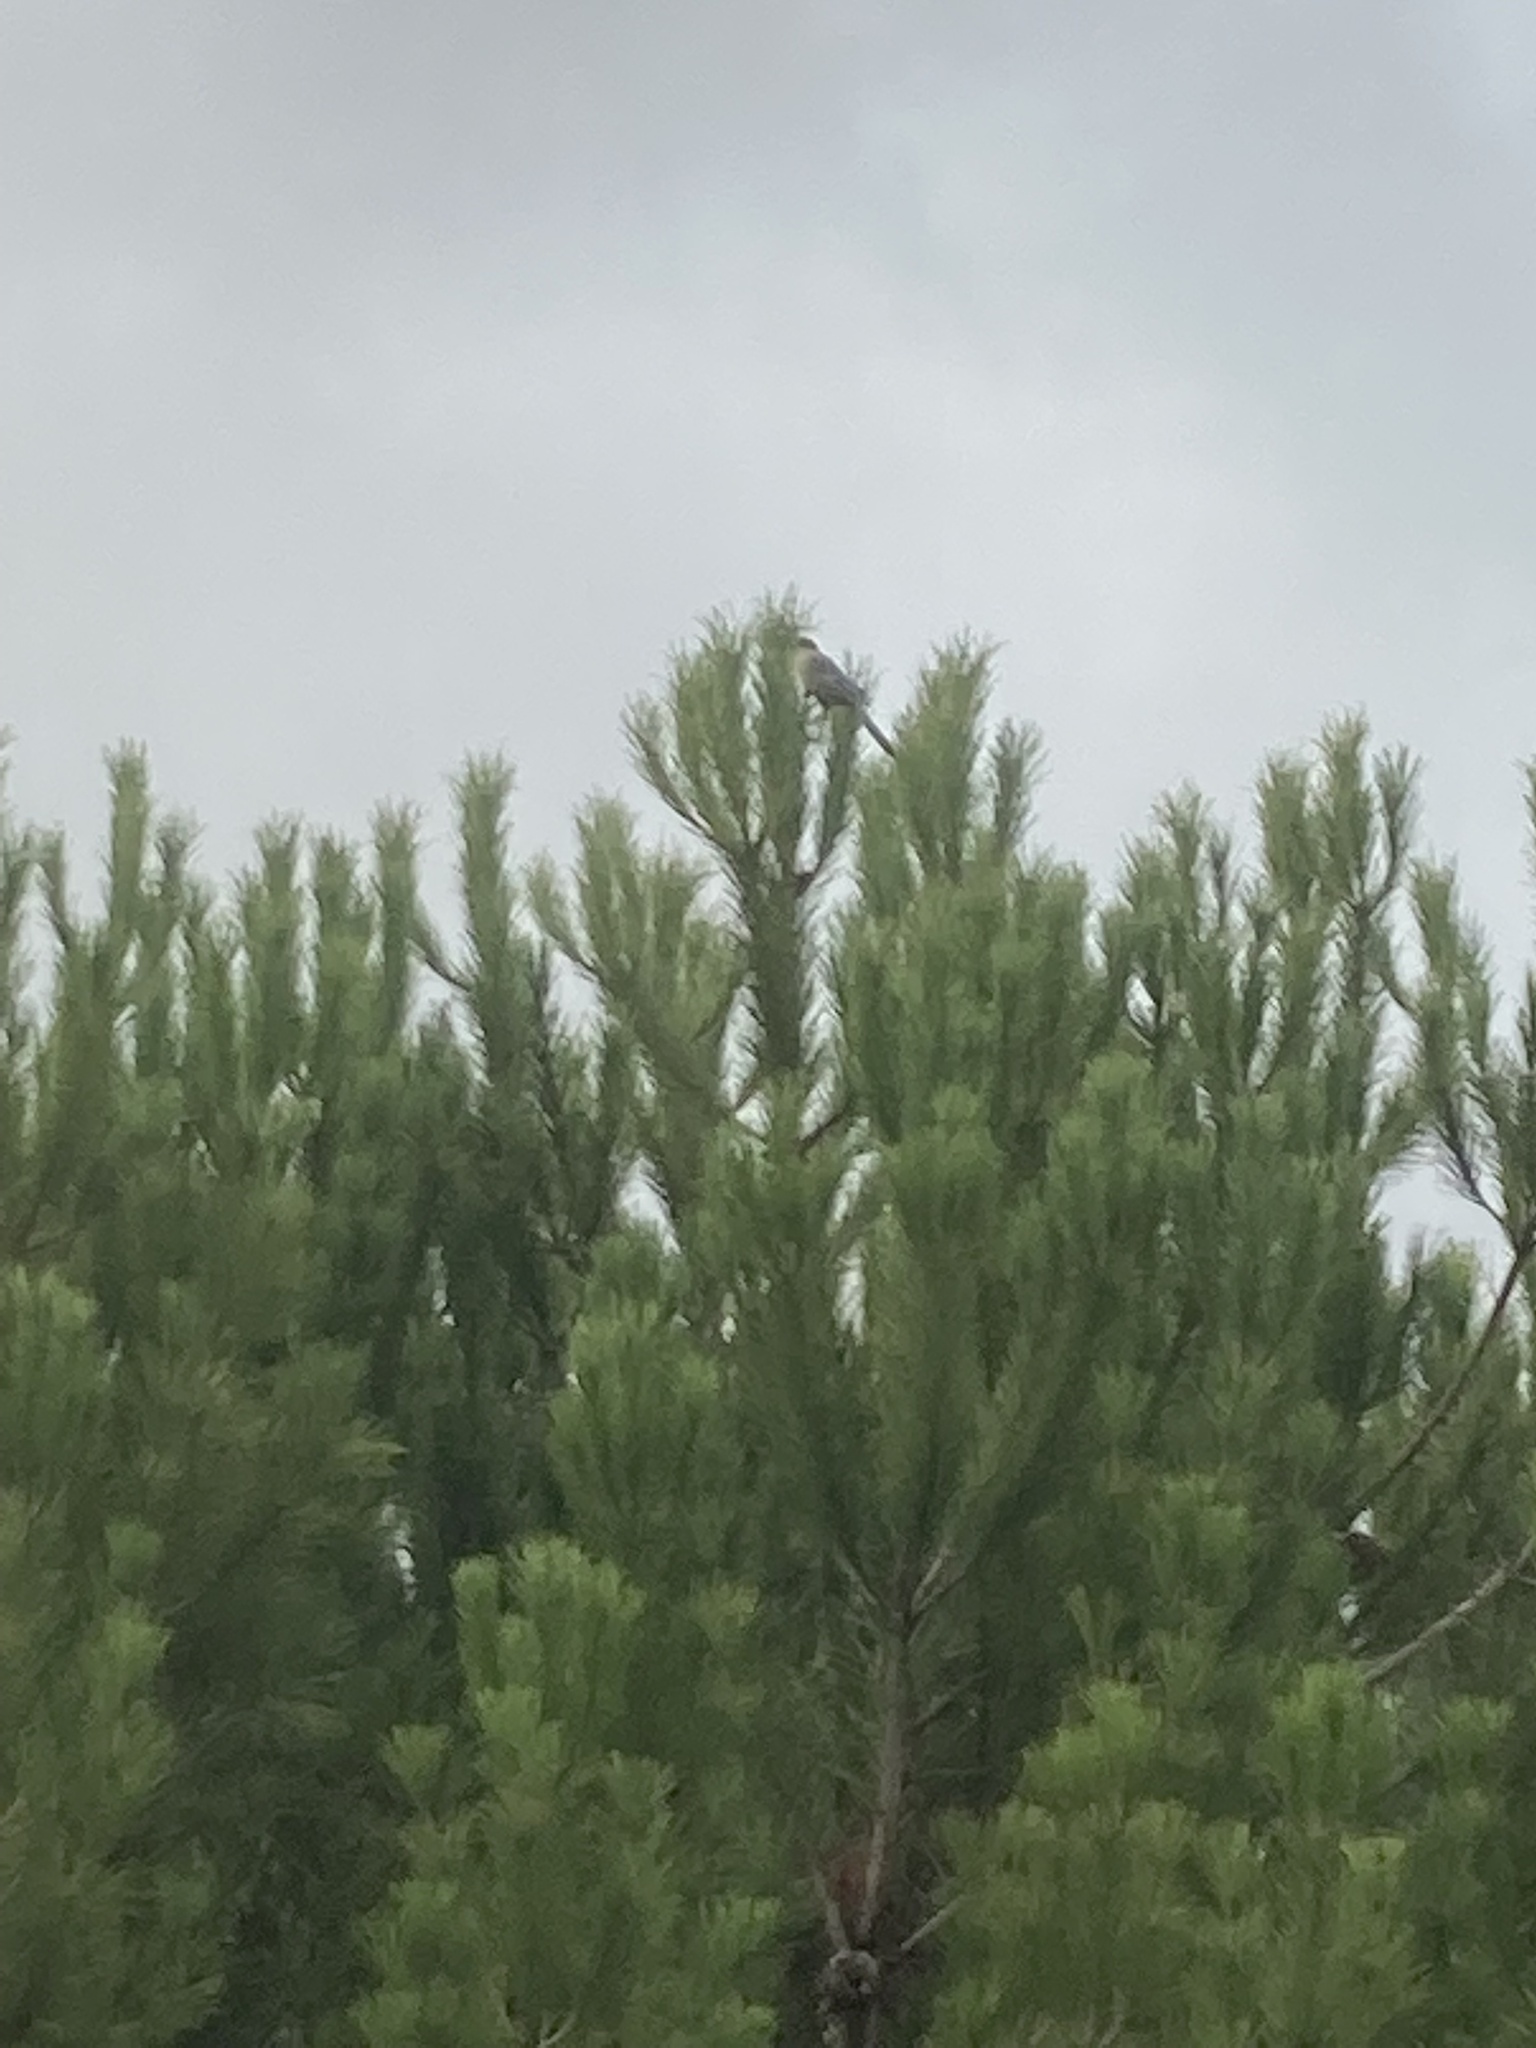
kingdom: Animalia
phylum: Chordata
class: Aves
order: Passeriformes
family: Corvidae
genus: Cyanopica
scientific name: Cyanopica cooki
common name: Iberian magpie
